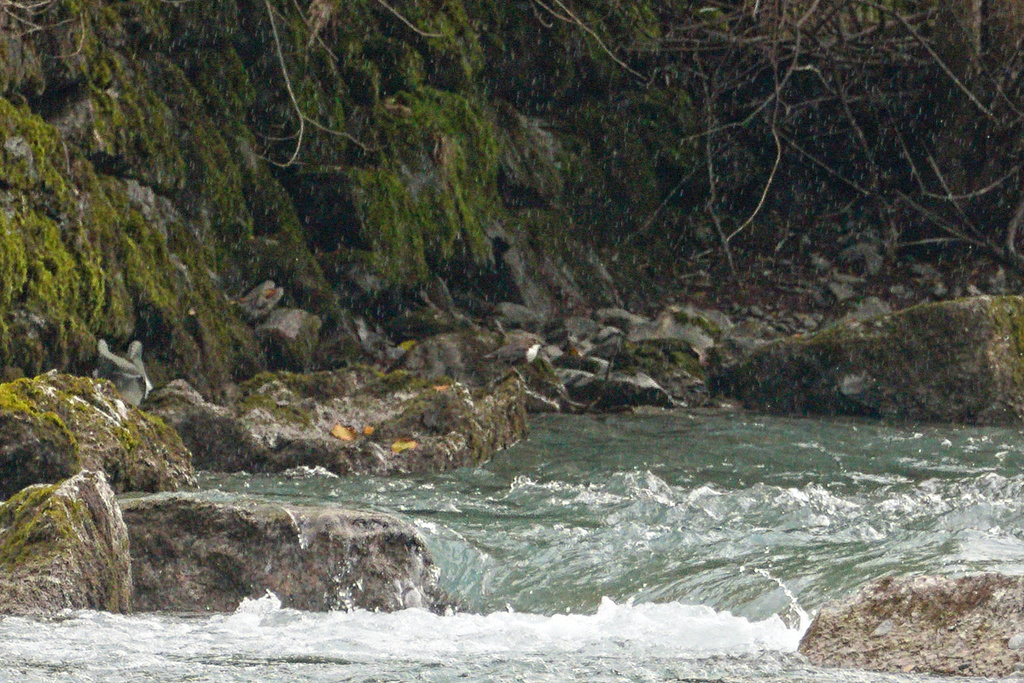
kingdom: Animalia
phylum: Chordata
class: Aves
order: Passeriformes
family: Cinclidae
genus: Cinclus
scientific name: Cinclus cinclus
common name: White-throated dipper
